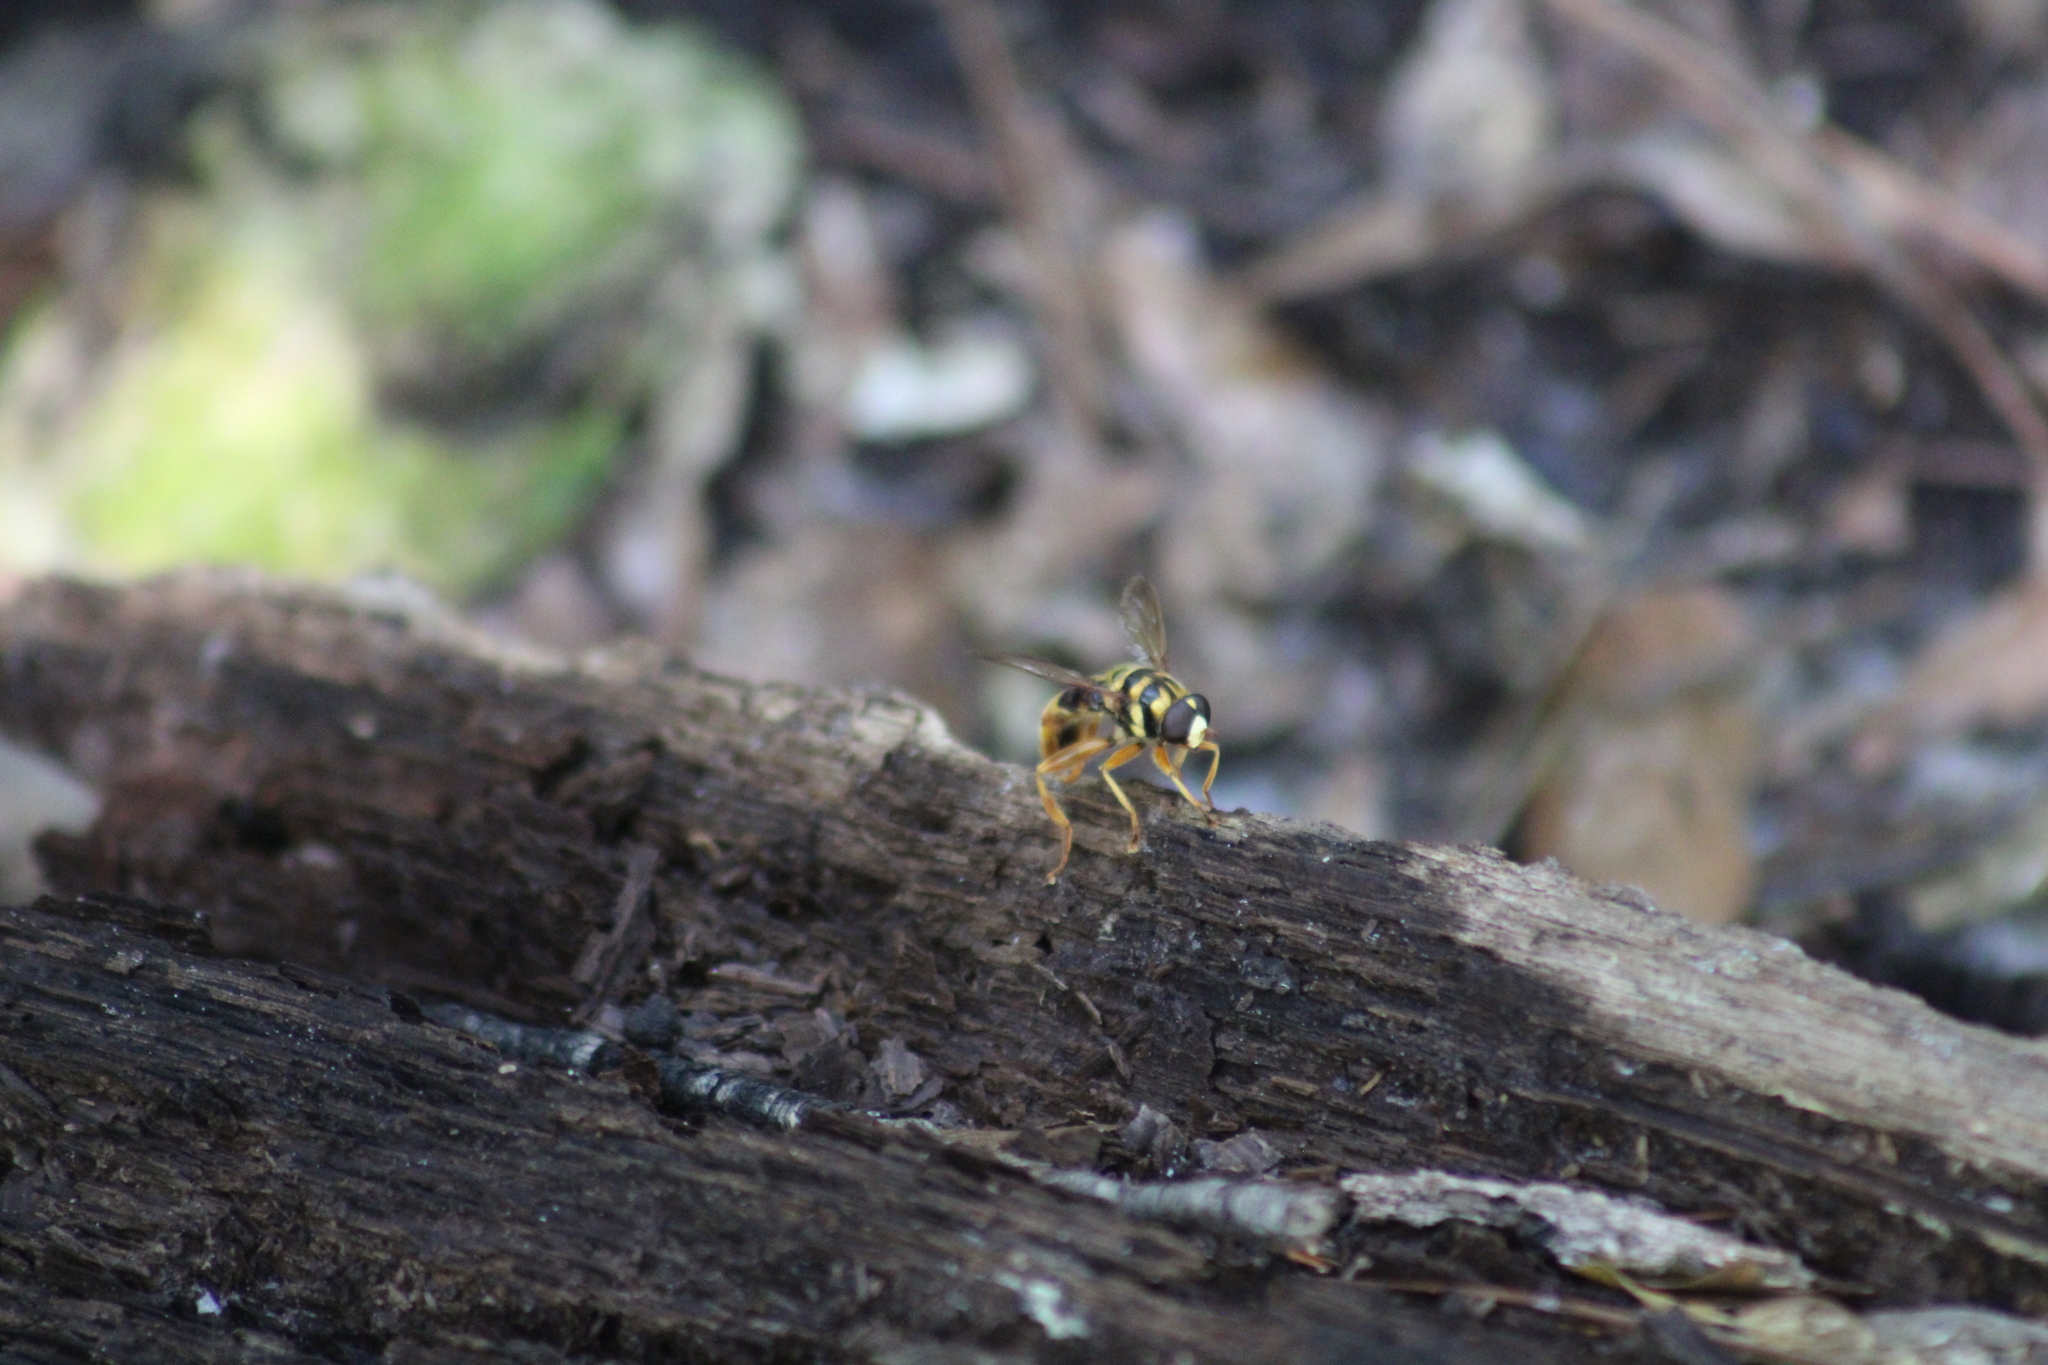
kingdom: Animalia
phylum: Arthropoda
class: Insecta
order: Diptera
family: Syrphidae
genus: Milesia
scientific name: Milesia virginiensis
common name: Virginia giant
